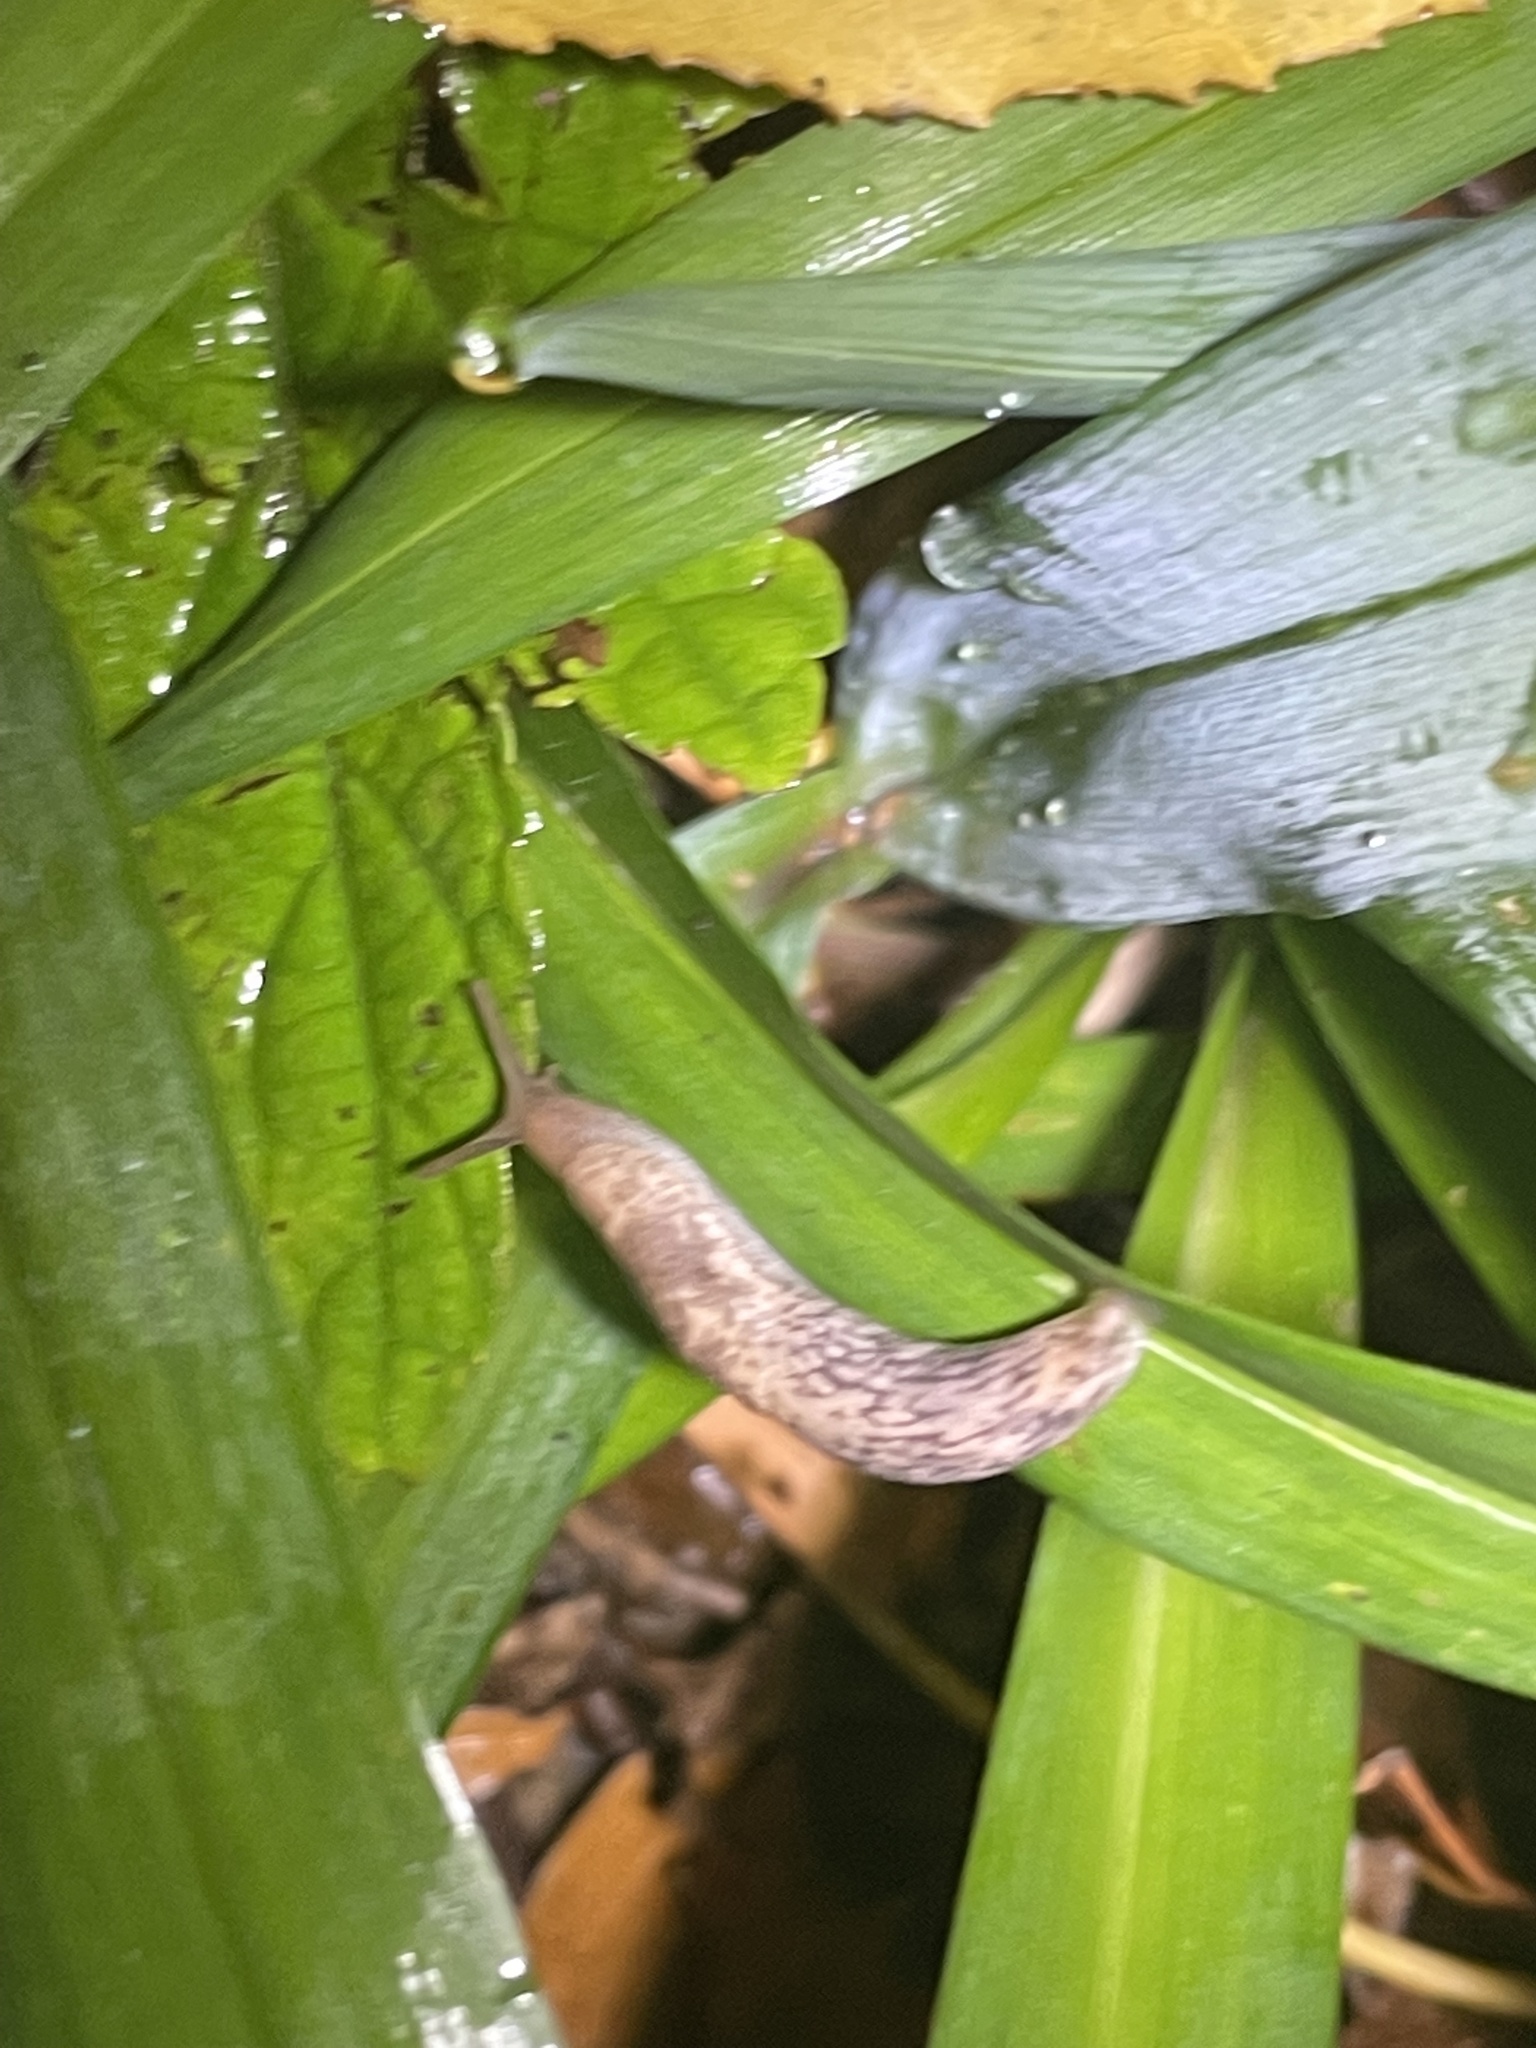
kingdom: Animalia
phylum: Mollusca
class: Gastropoda
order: Stylommatophora
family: Agriolimacidae
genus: Deroceras
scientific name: Deroceras reticulatum
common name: Gray field slug
